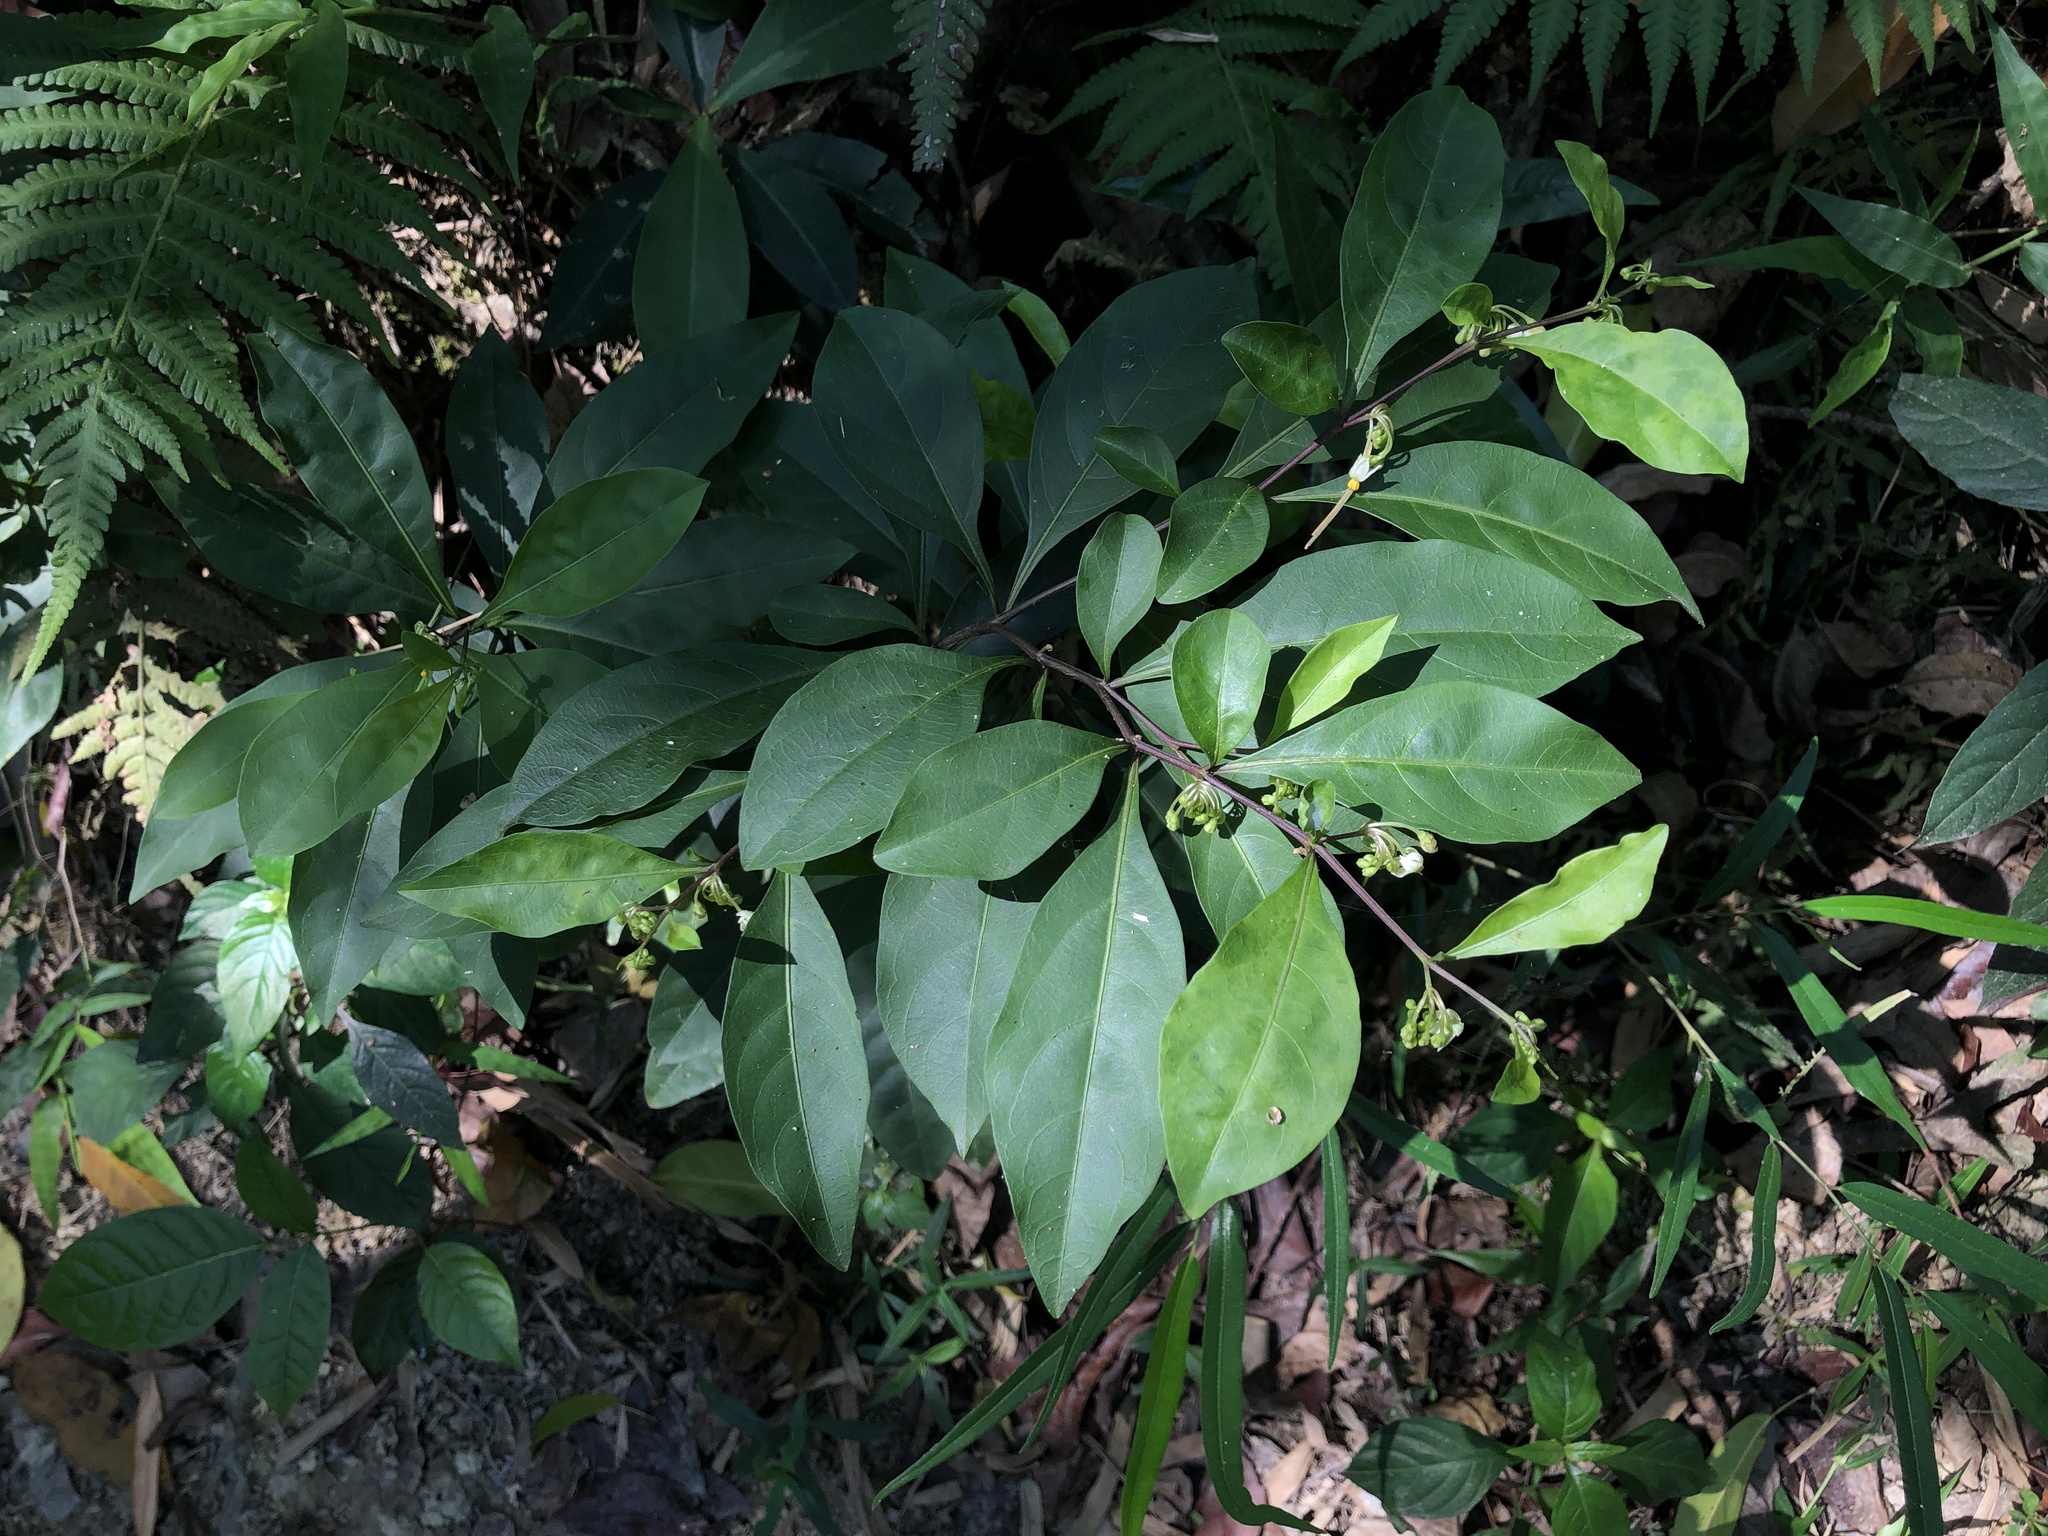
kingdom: Plantae
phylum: Tracheophyta
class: Magnoliopsida
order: Solanales
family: Solanaceae
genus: Solanum
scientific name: Solanum diphyllum
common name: Twoleaf nightshade
